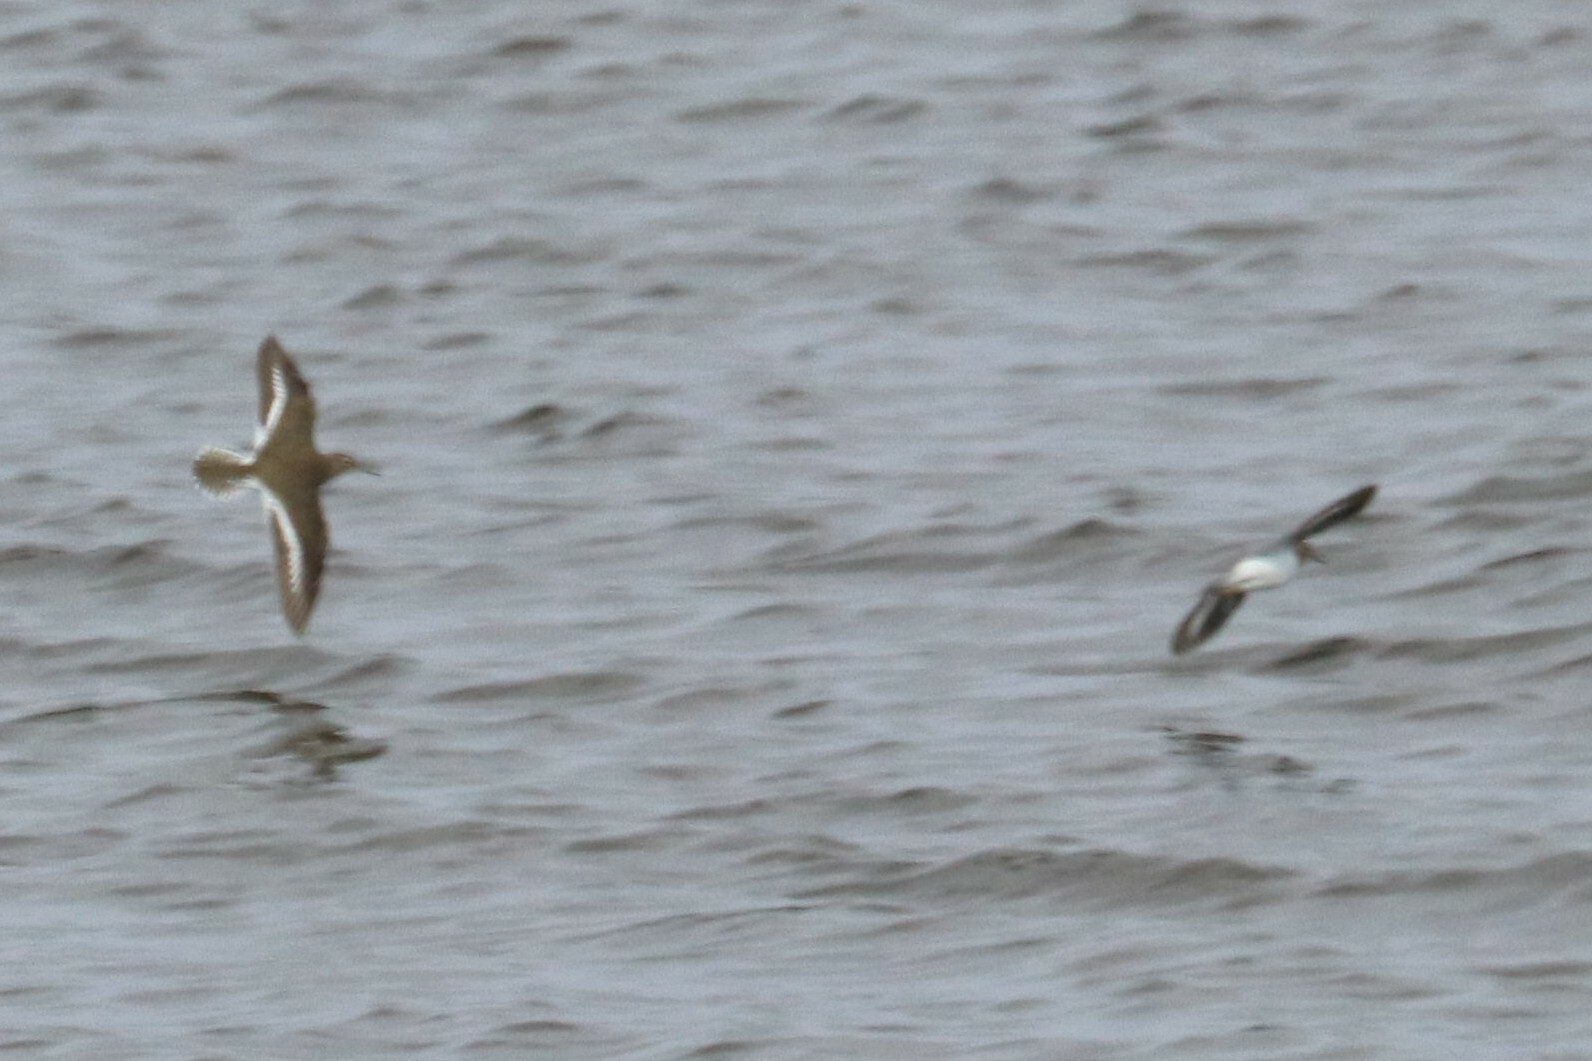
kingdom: Animalia
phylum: Chordata
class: Aves
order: Charadriiformes
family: Scolopacidae
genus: Actitis
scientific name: Actitis hypoleucos
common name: Common sandpiper
